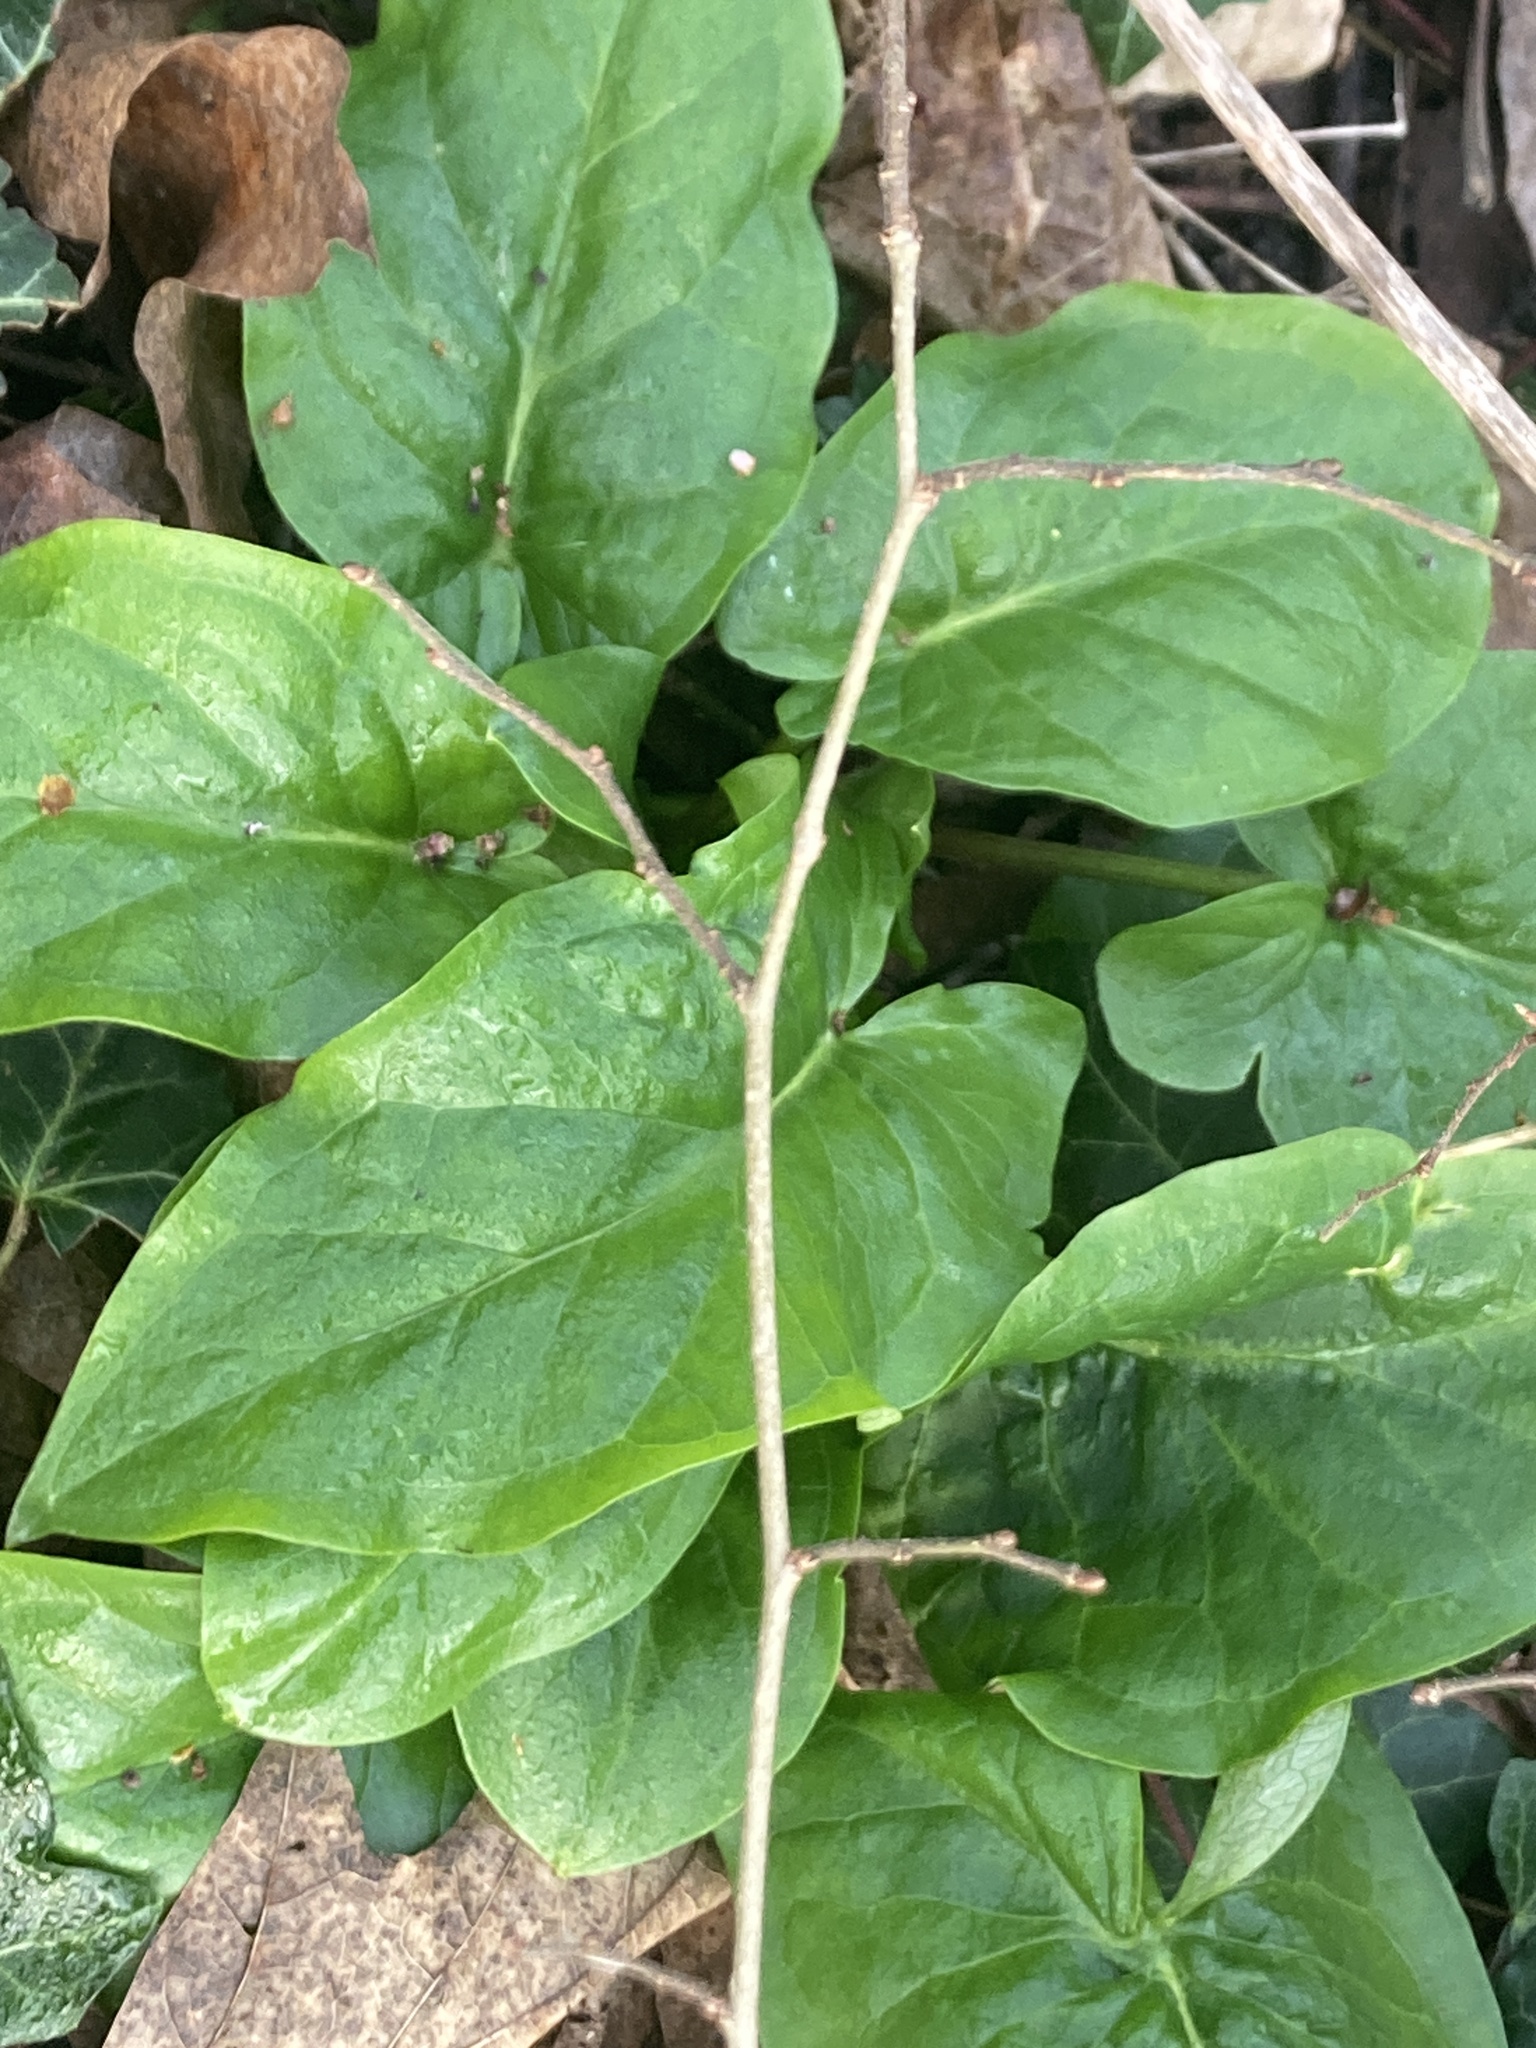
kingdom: Plantae
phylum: Tracheophyta
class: Liliopsida
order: Alismatales
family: Araceae
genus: Arum
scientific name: Arum maculatum
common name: Lords-and-ladies
